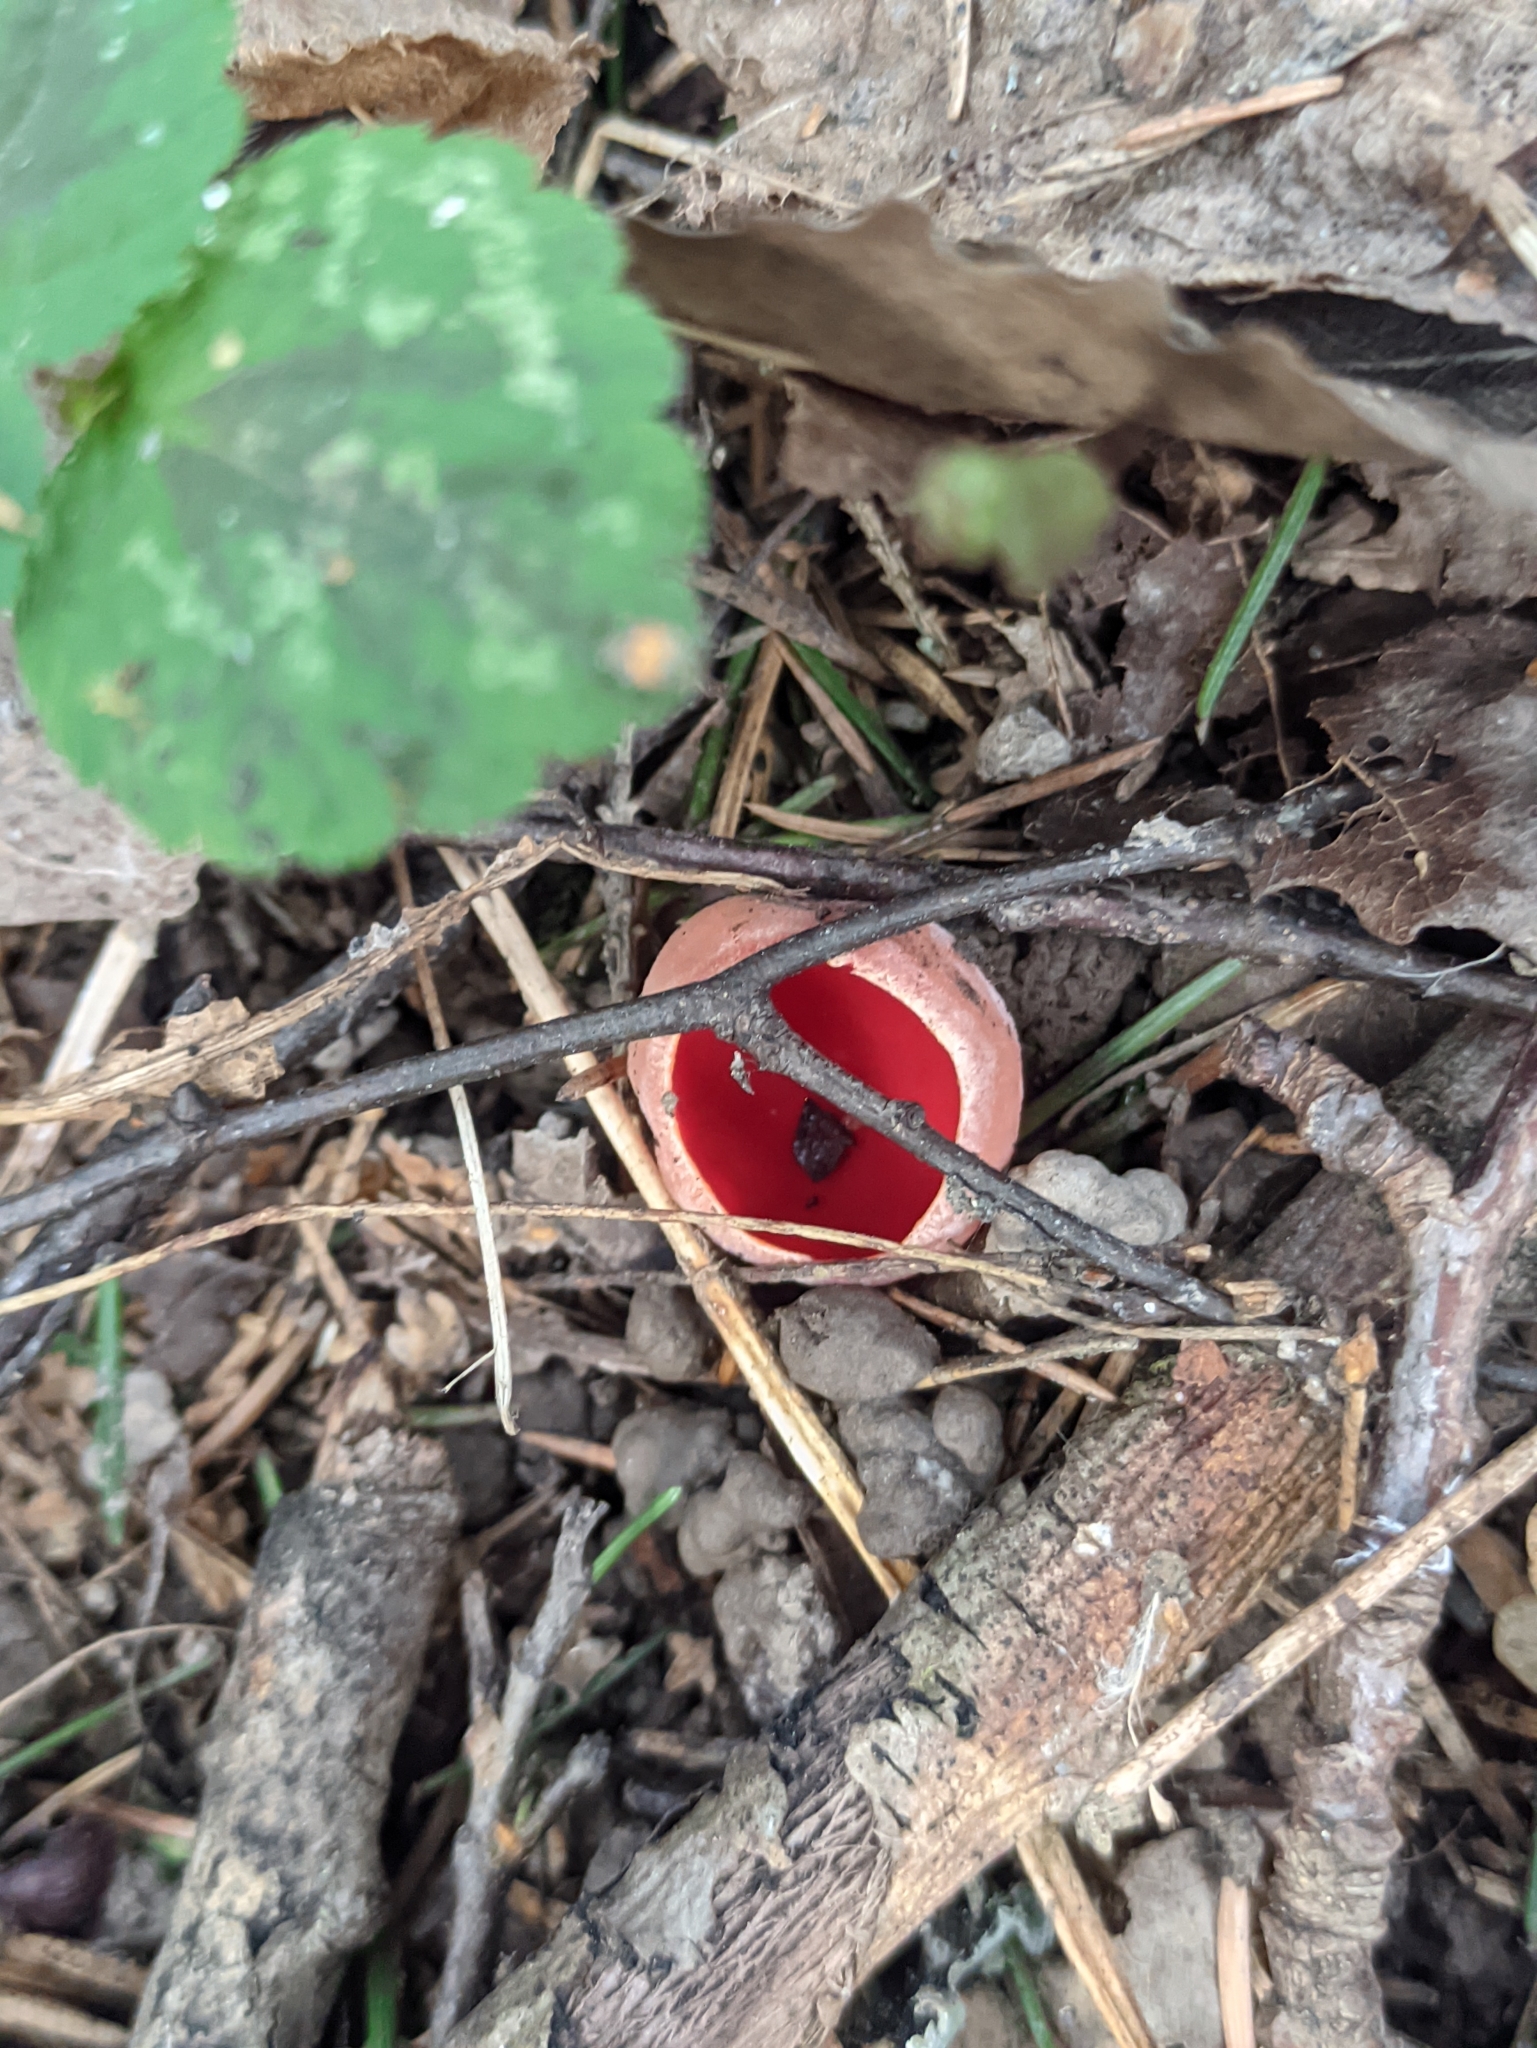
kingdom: Fungi
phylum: Ascomycota
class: Pezizomycetes
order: Pezizales
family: Sarcoscyphaceae
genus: Sarcoscypha
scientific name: Sarcoscypha austriaca
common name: Scarlet elfcup
